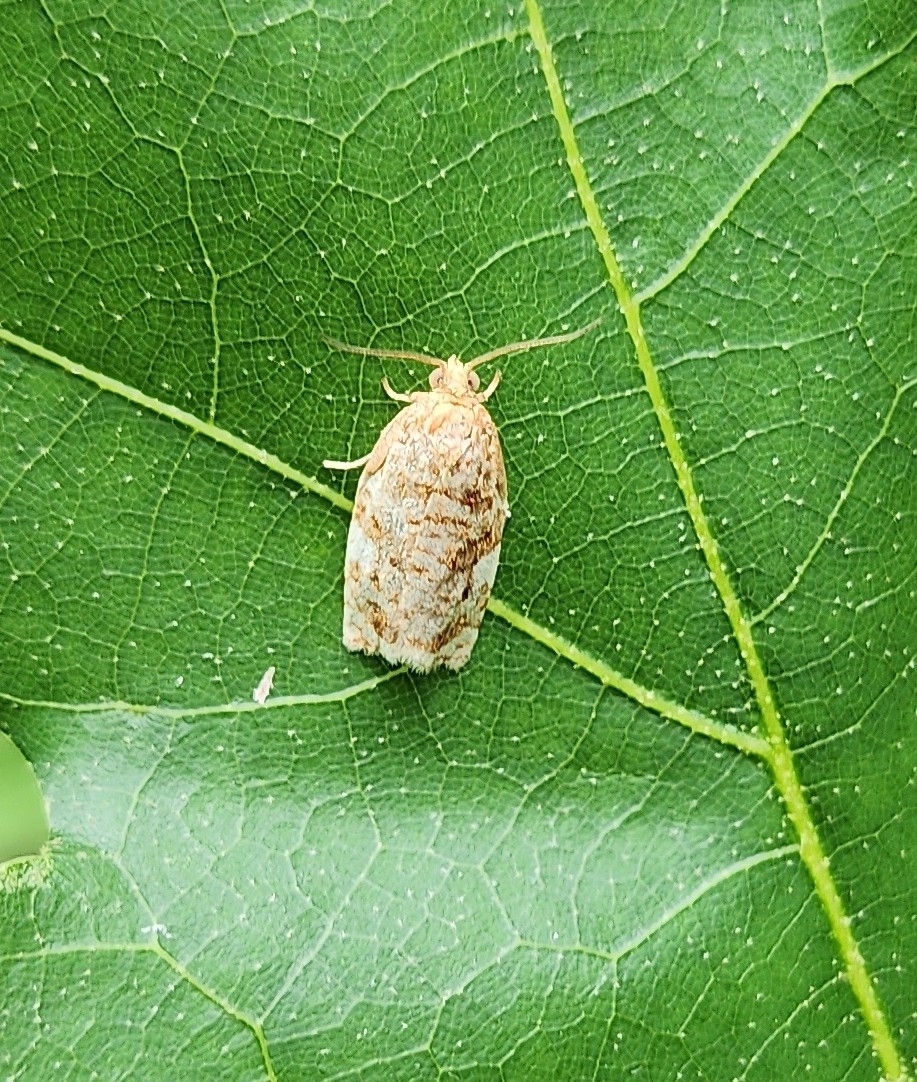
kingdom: Animalia
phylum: Arthropoda
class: Insecta
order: Lepidoptera
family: Tortricidae
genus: Archips
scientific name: Archips argyrospila
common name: Fruit-tree leafroller moth
